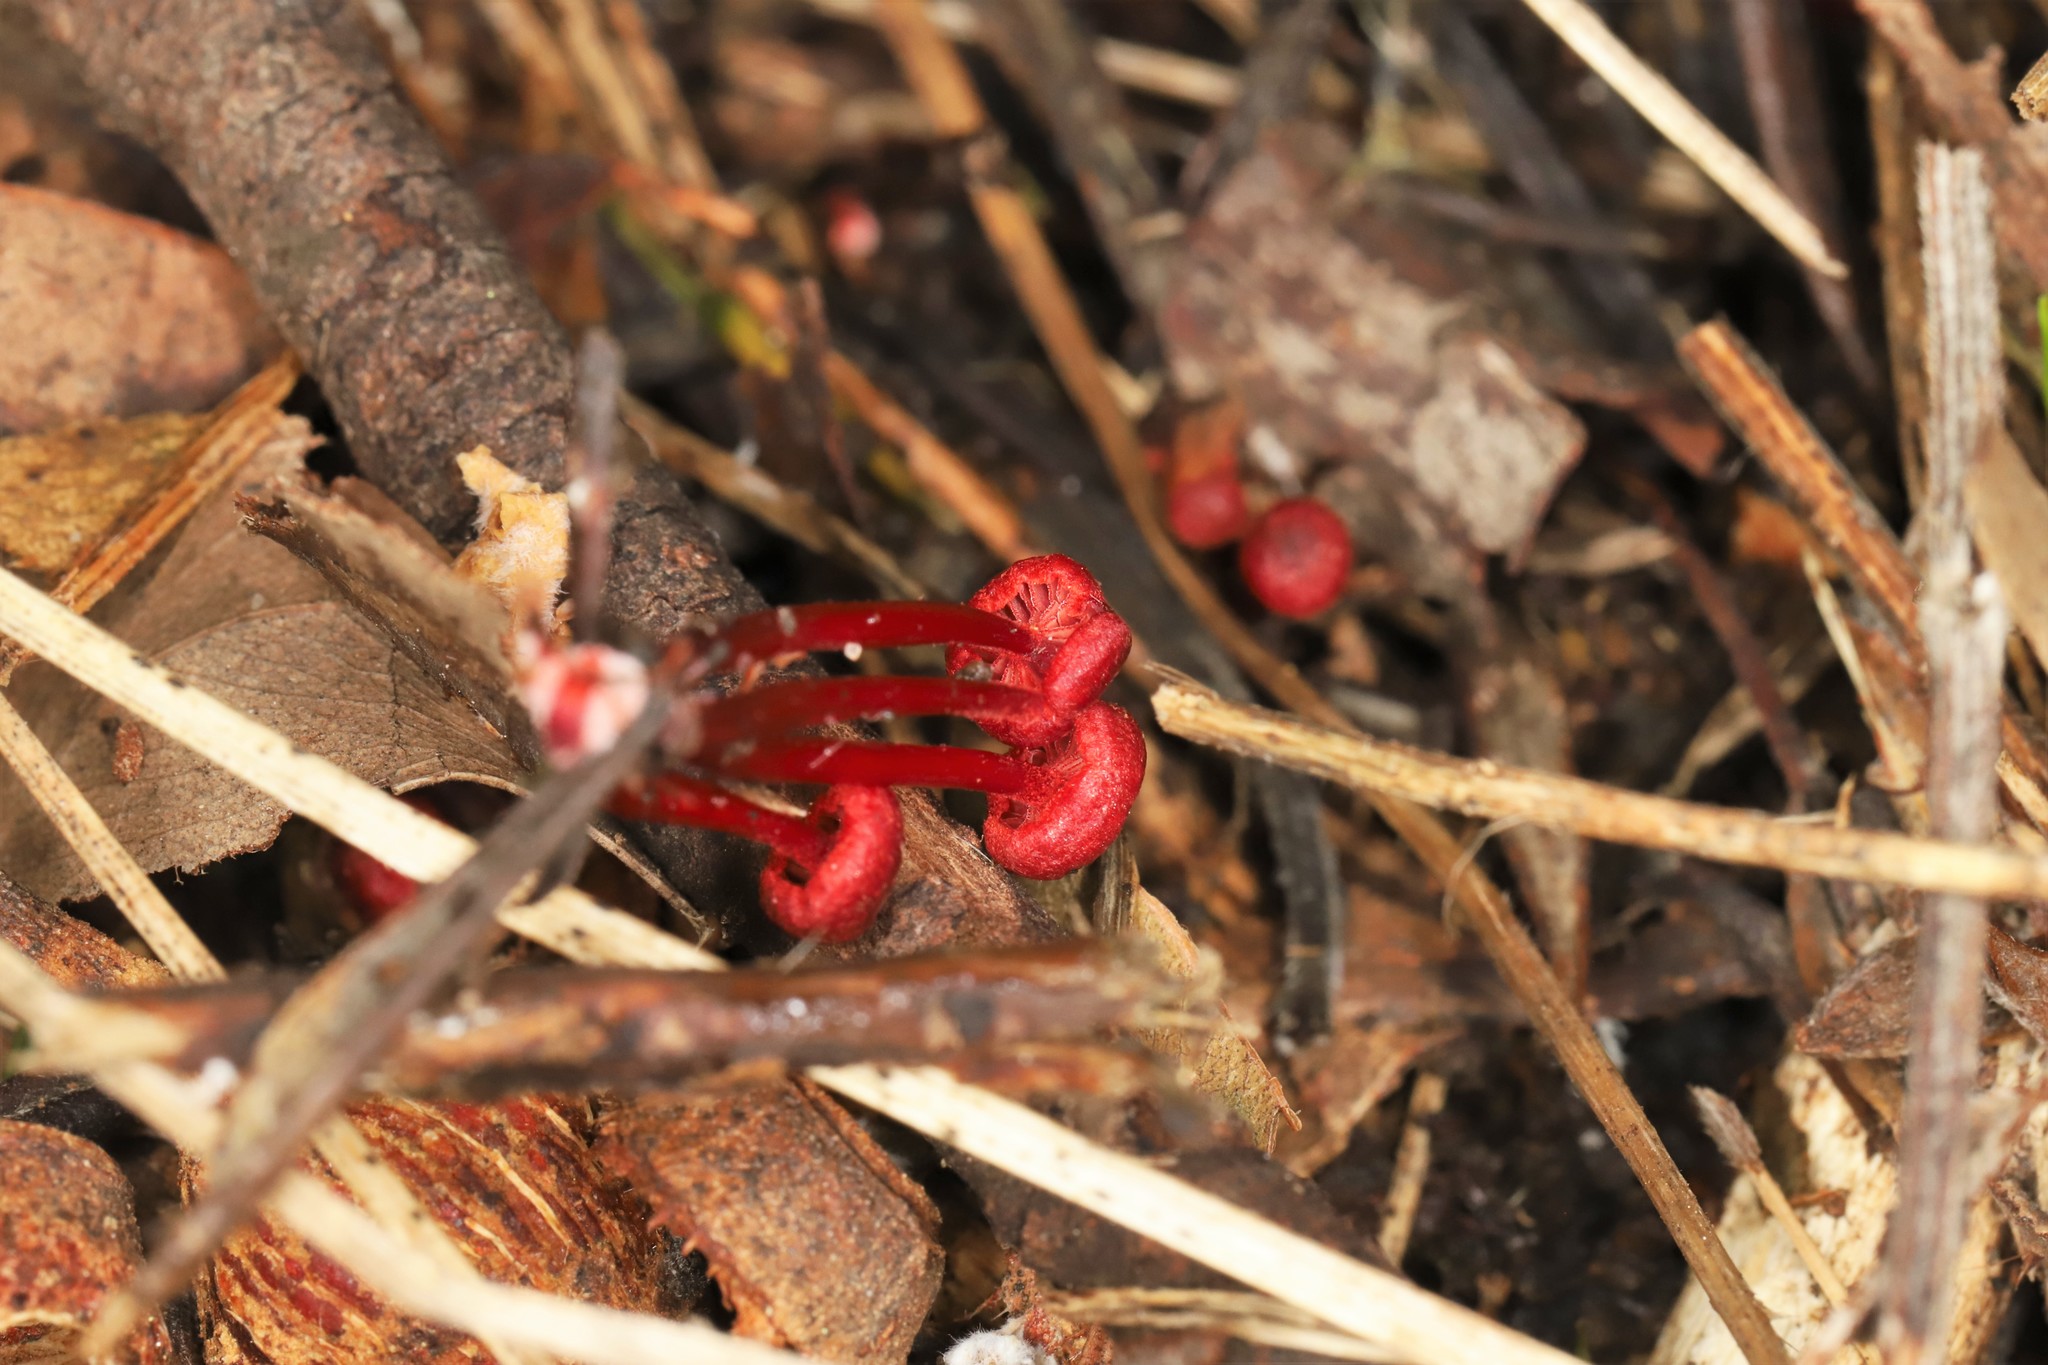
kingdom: Fungi
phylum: Basidiomycota
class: Agaricomycetes
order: Agaricales
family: Mycenaceae
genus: Cruentomycena
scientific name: Cruentomycena viscidocruenta
